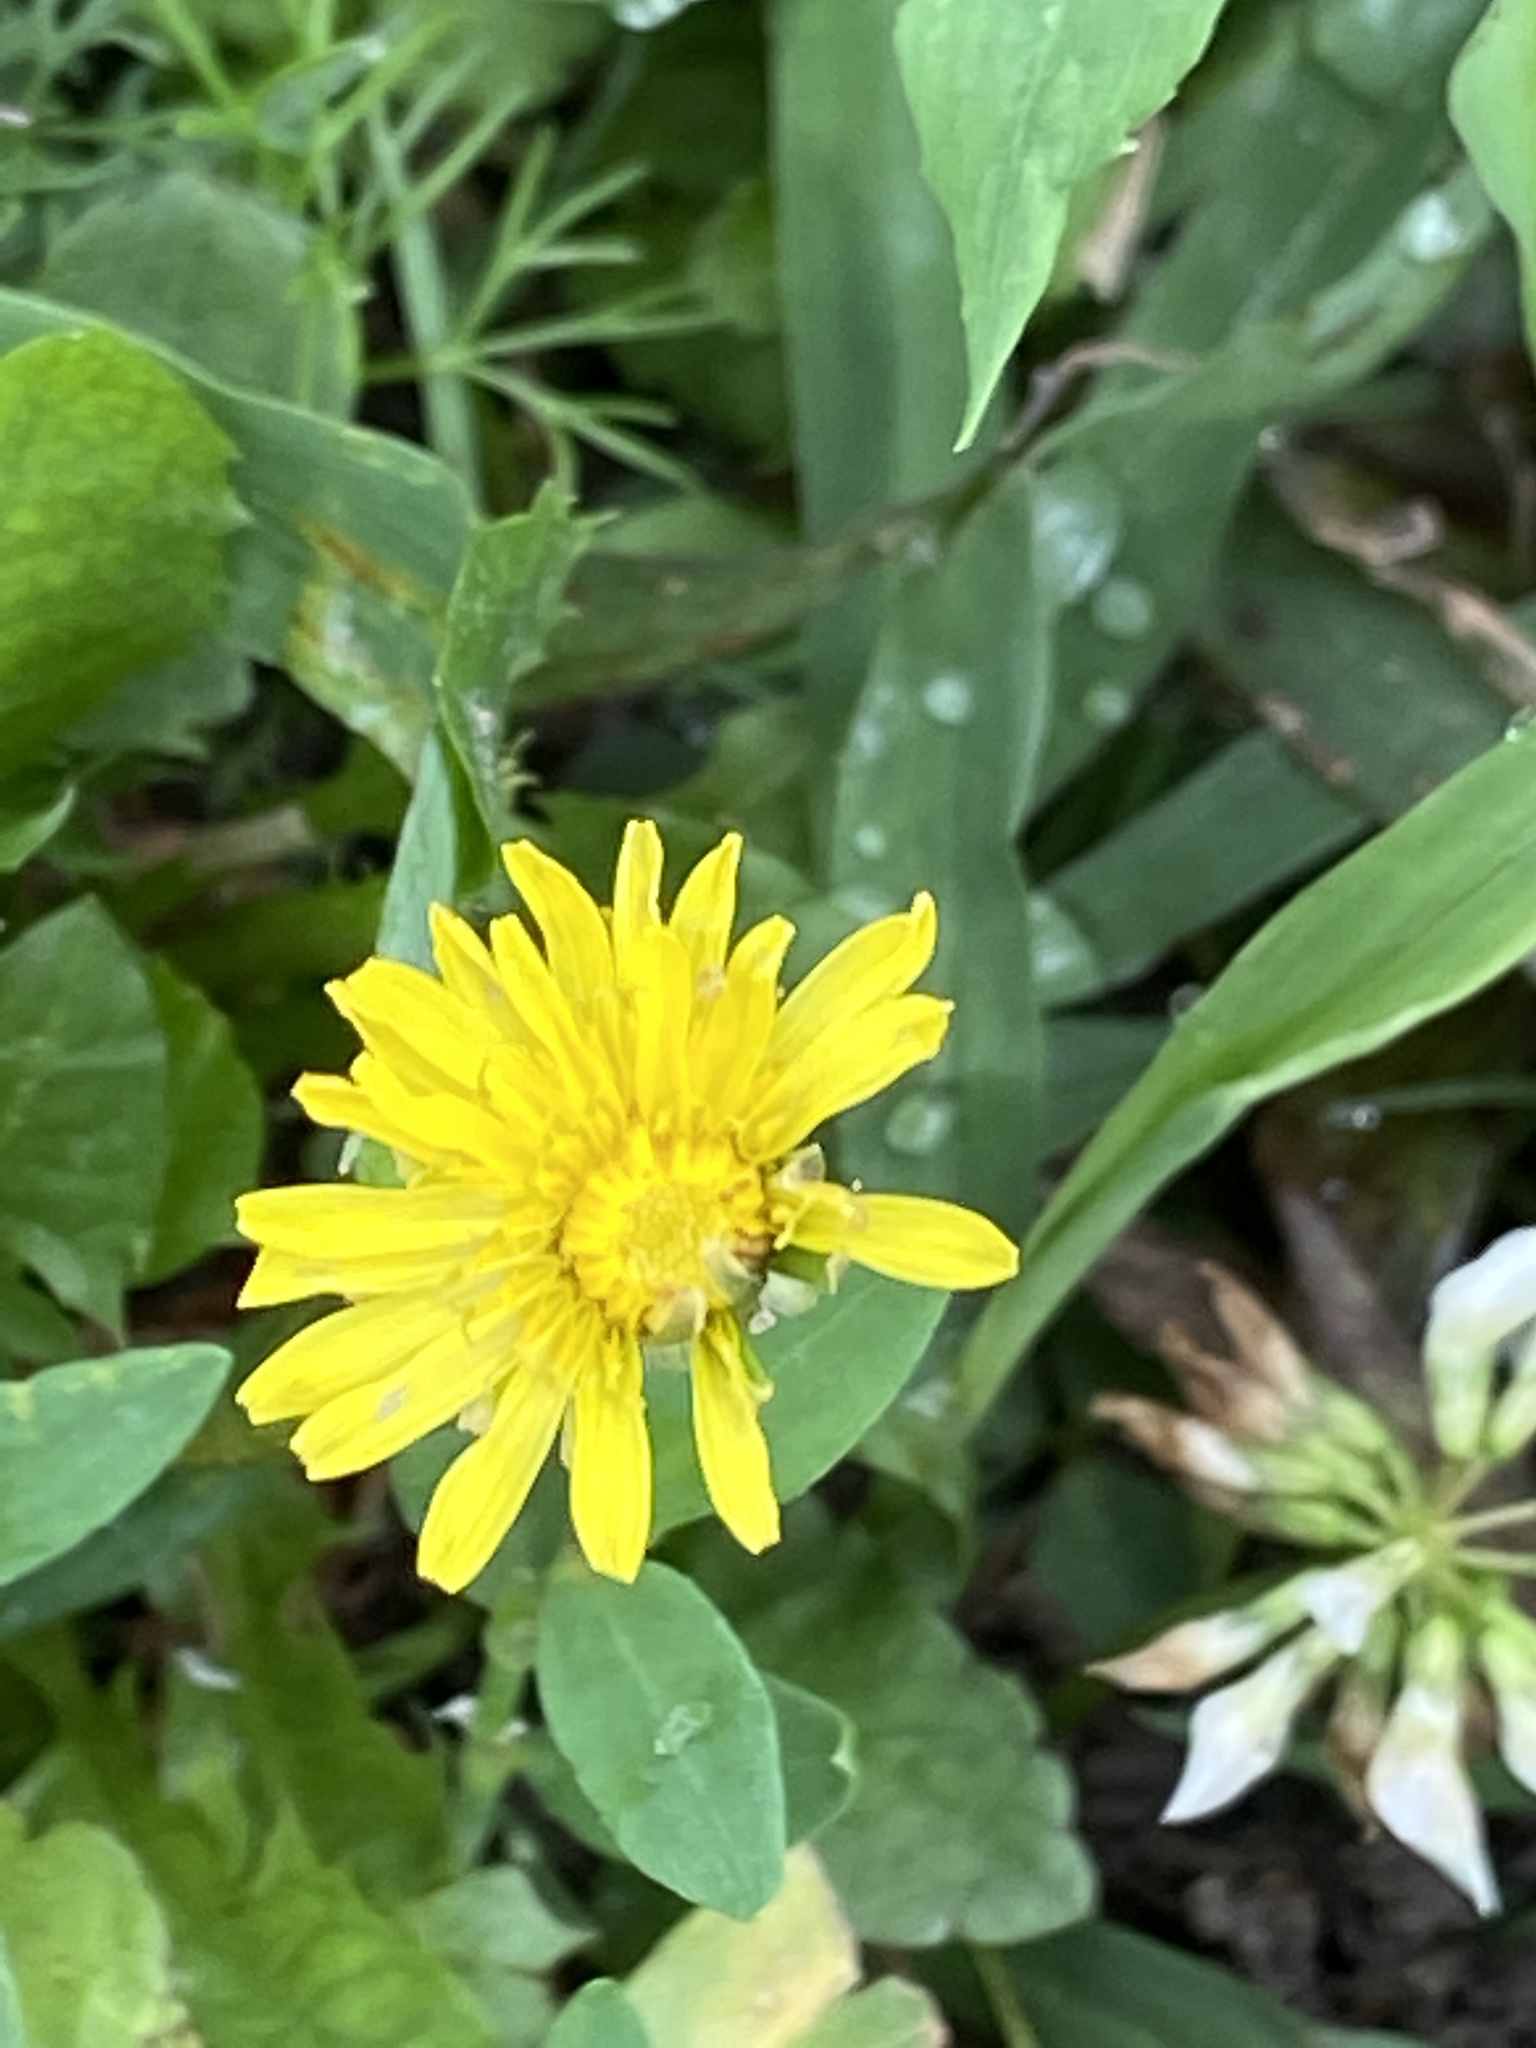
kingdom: Plantae
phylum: Tracheophyta
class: Magnoliopsida
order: Asterales
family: Asteraceae
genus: Taraxacum
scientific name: Taraxacum officinale
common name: Common dandelion
